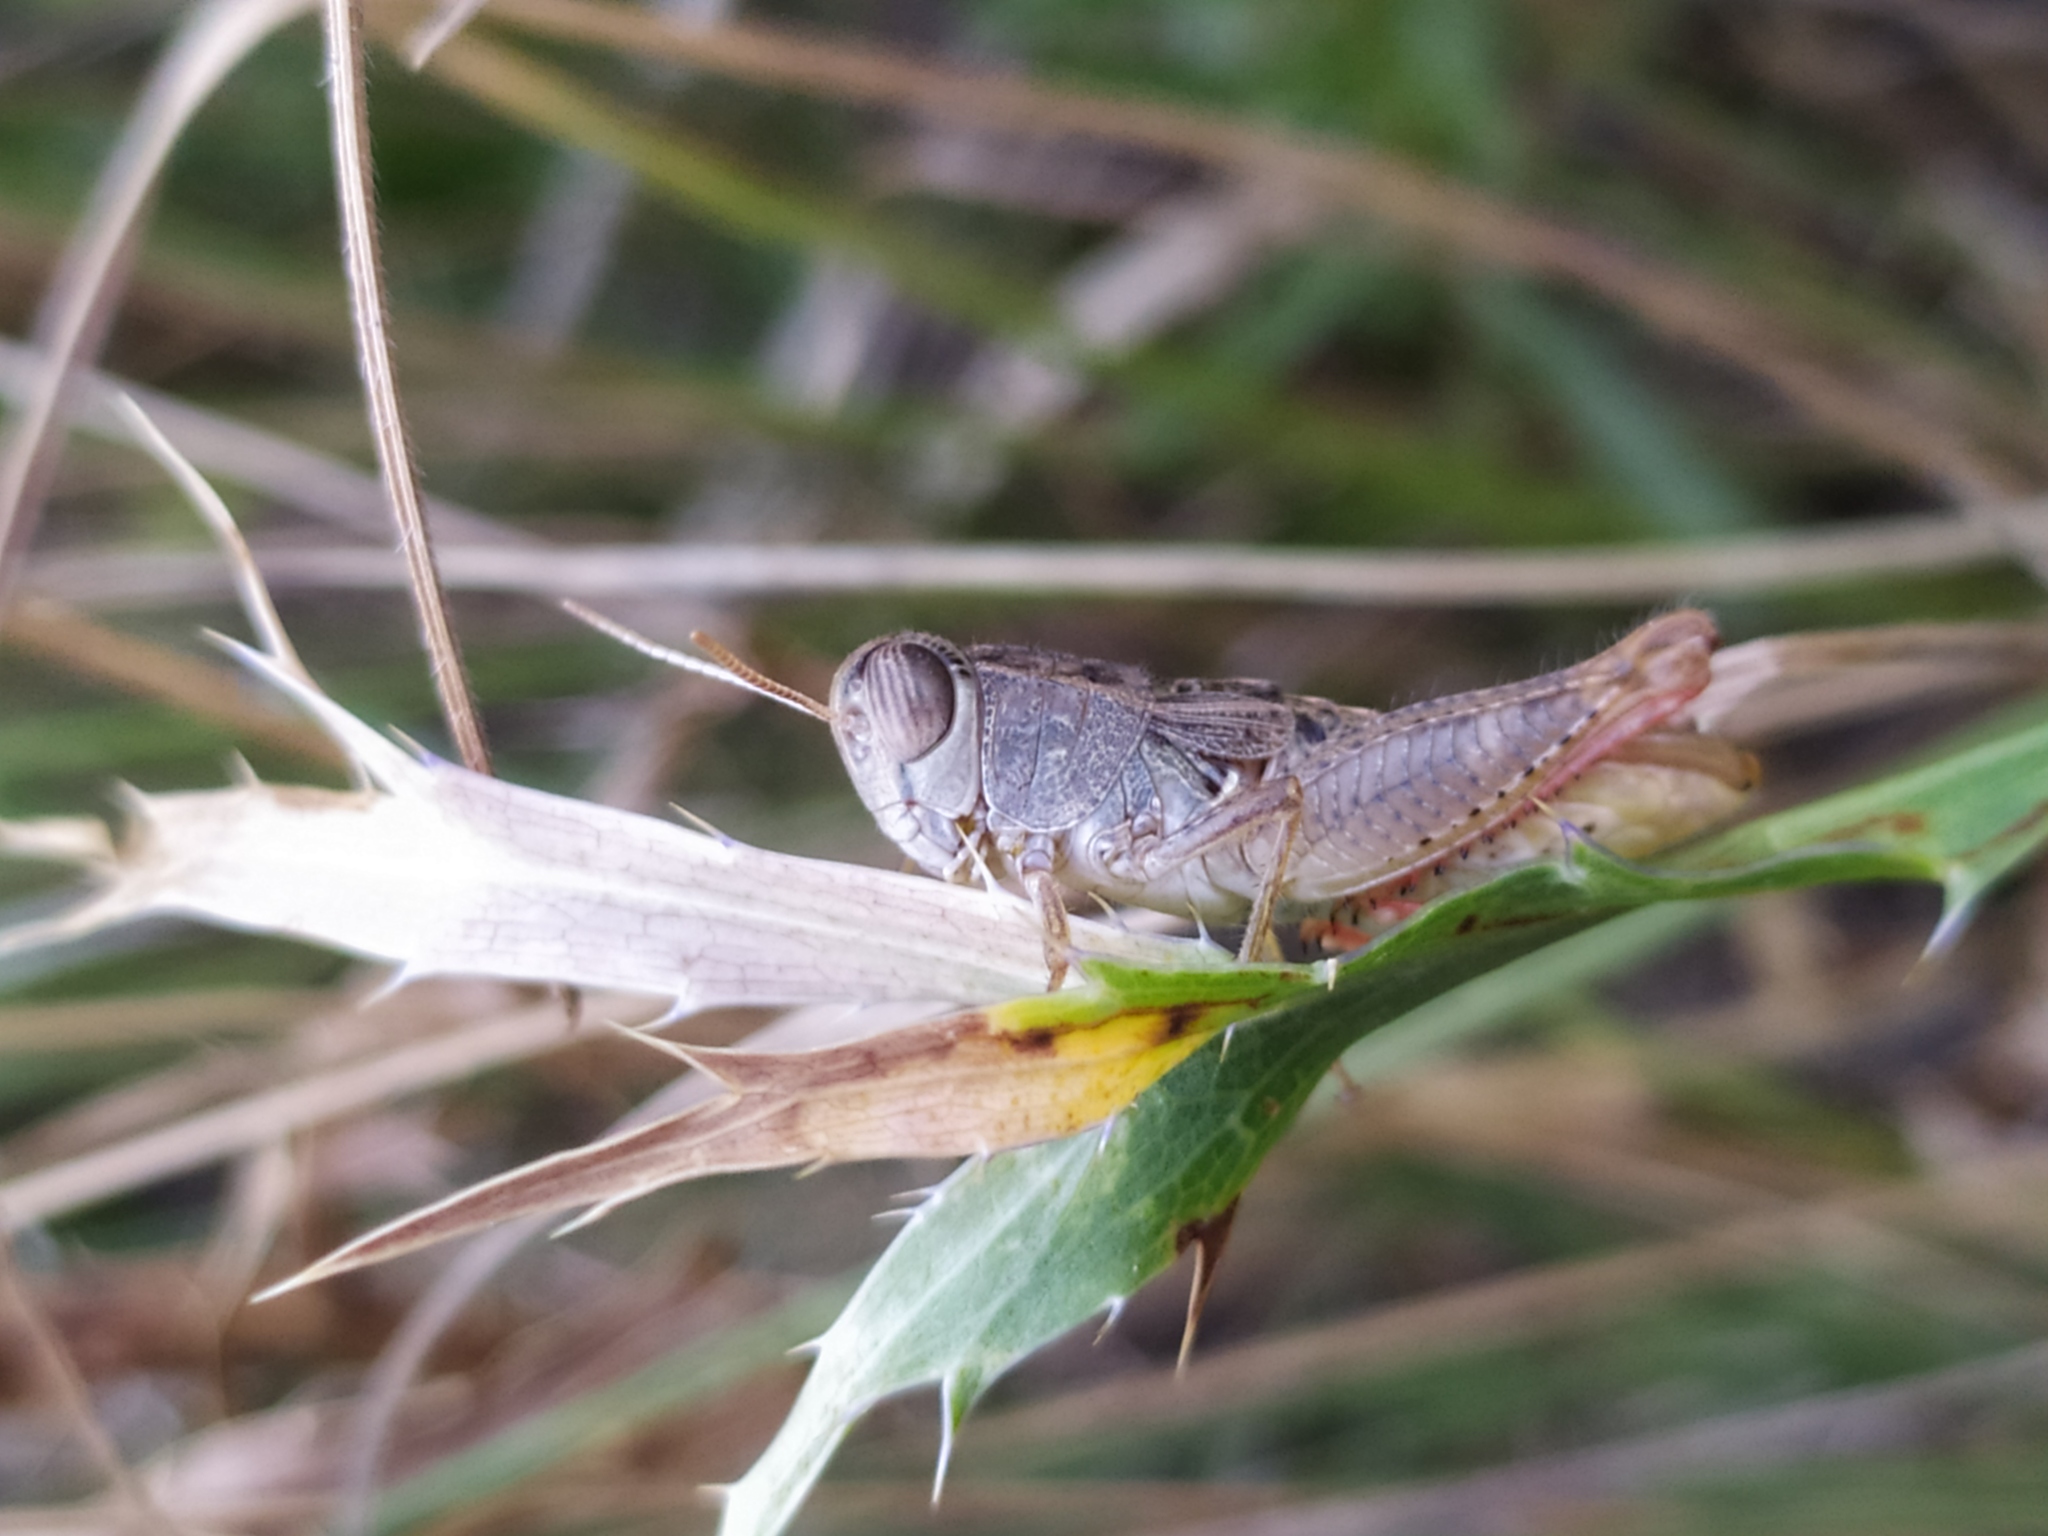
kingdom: Animalia
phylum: Arthropoda
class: Insecta
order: Orthoptera
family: Acrididae
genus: Paracaloptenus
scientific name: Paracaloptenus cristatus
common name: Istrian pincer grasshopper
